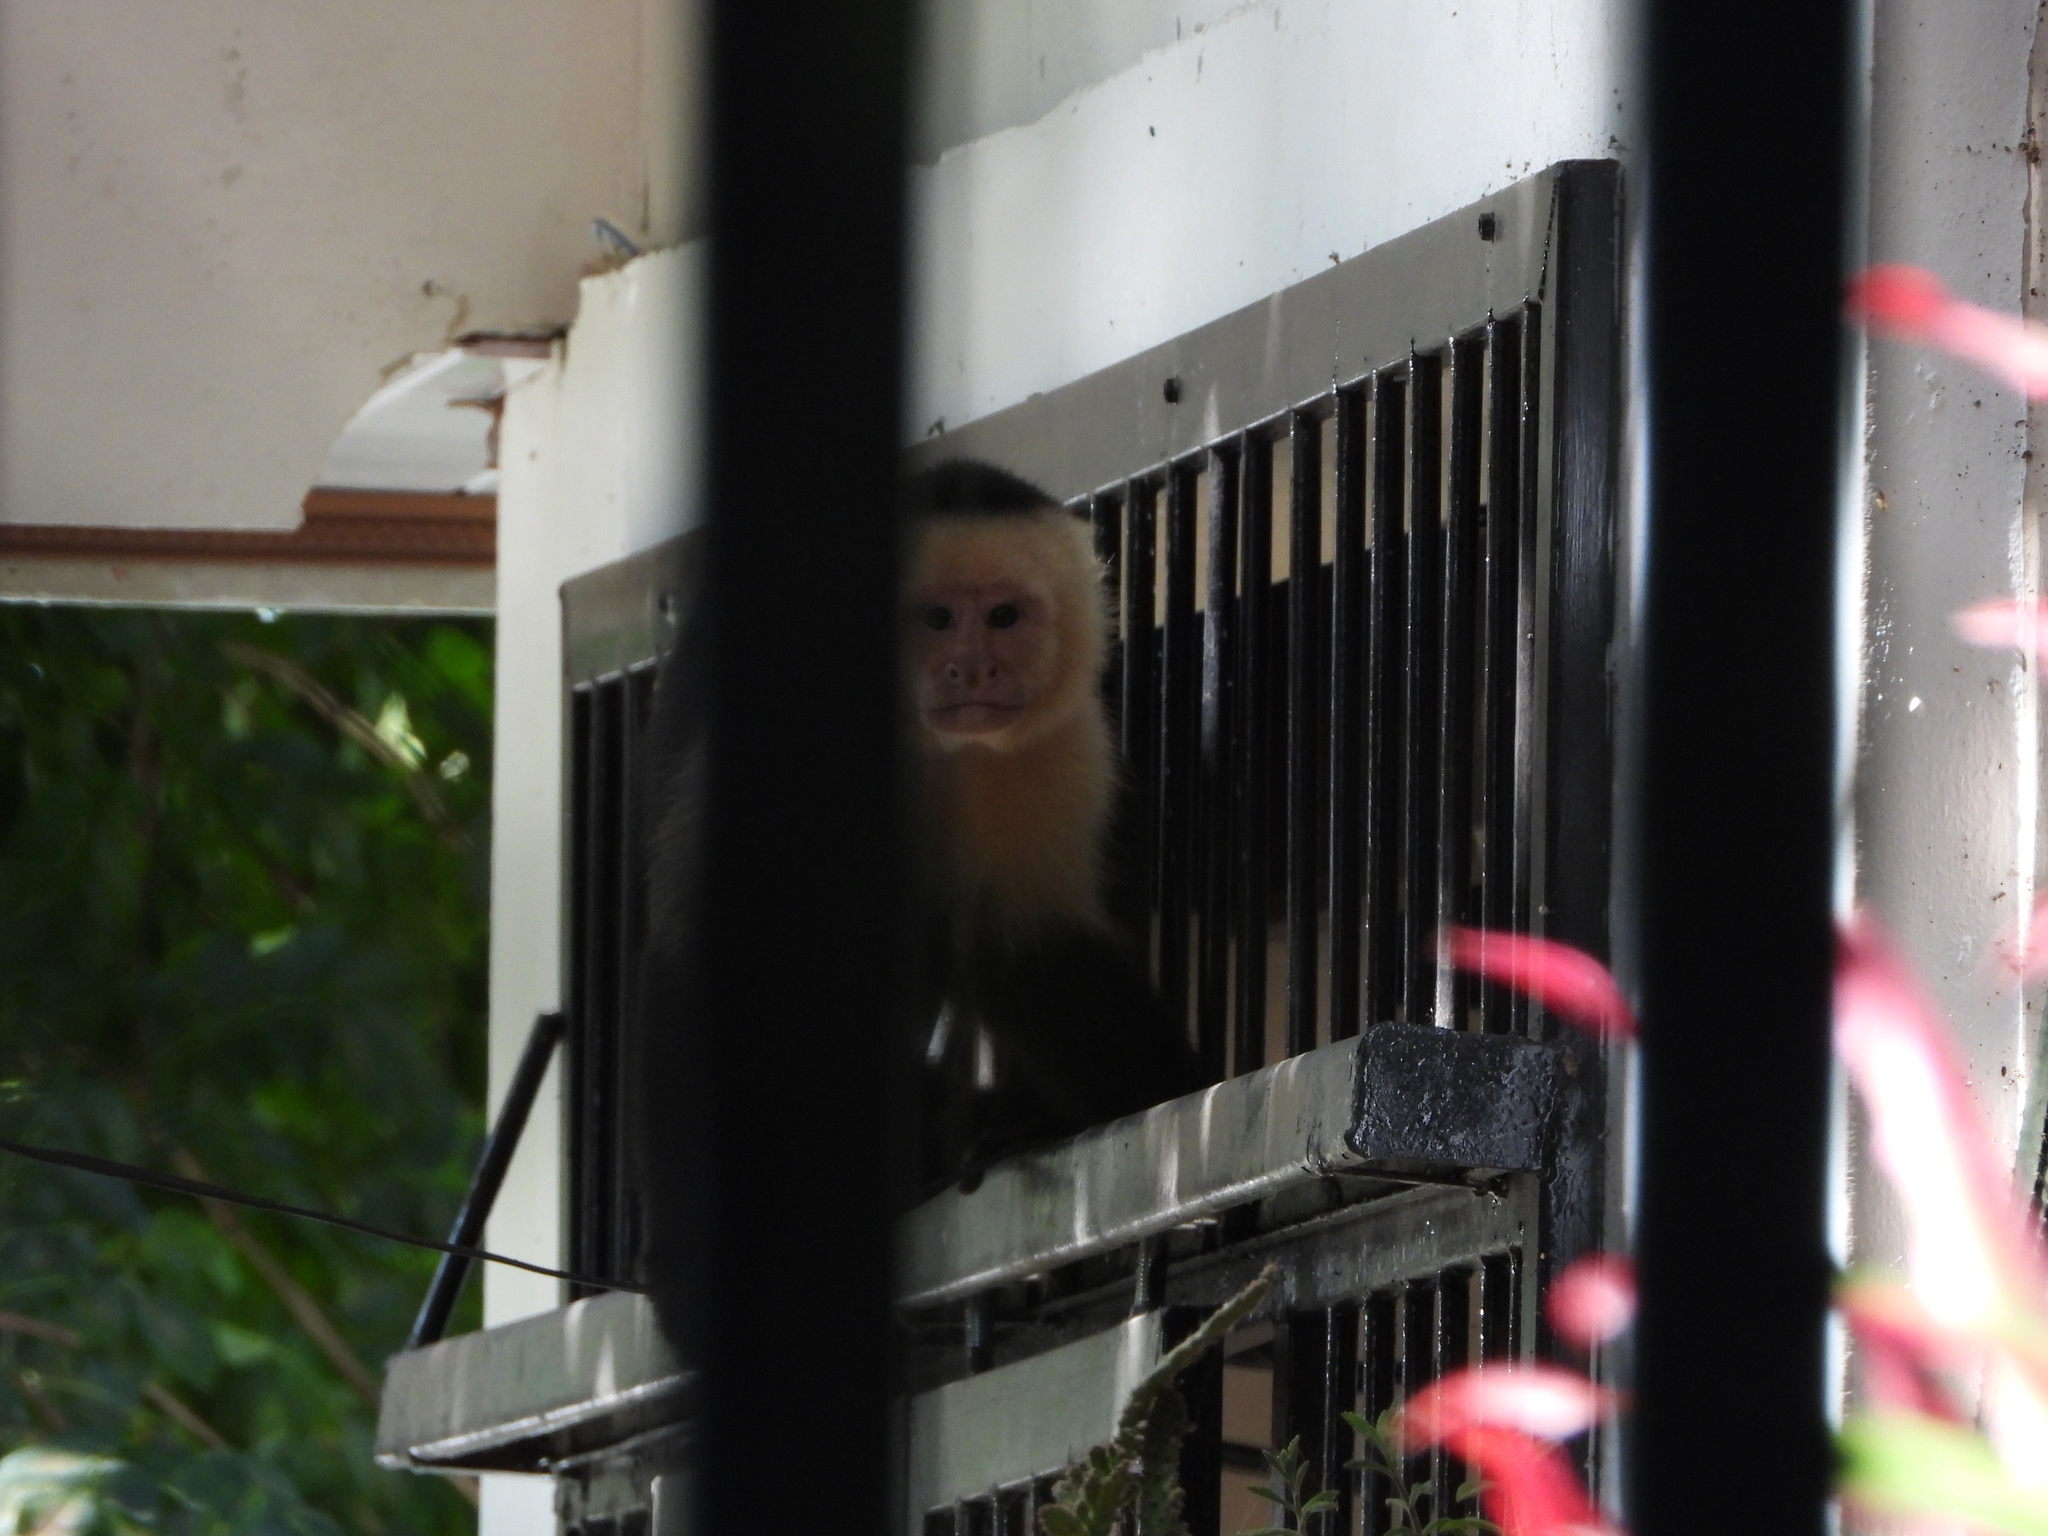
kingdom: Animalia
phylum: Chordata
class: Mammalia
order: Primates
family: Cebidae
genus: Cebus
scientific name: Cebus imitator
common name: Panamanian white-faced capuchin
